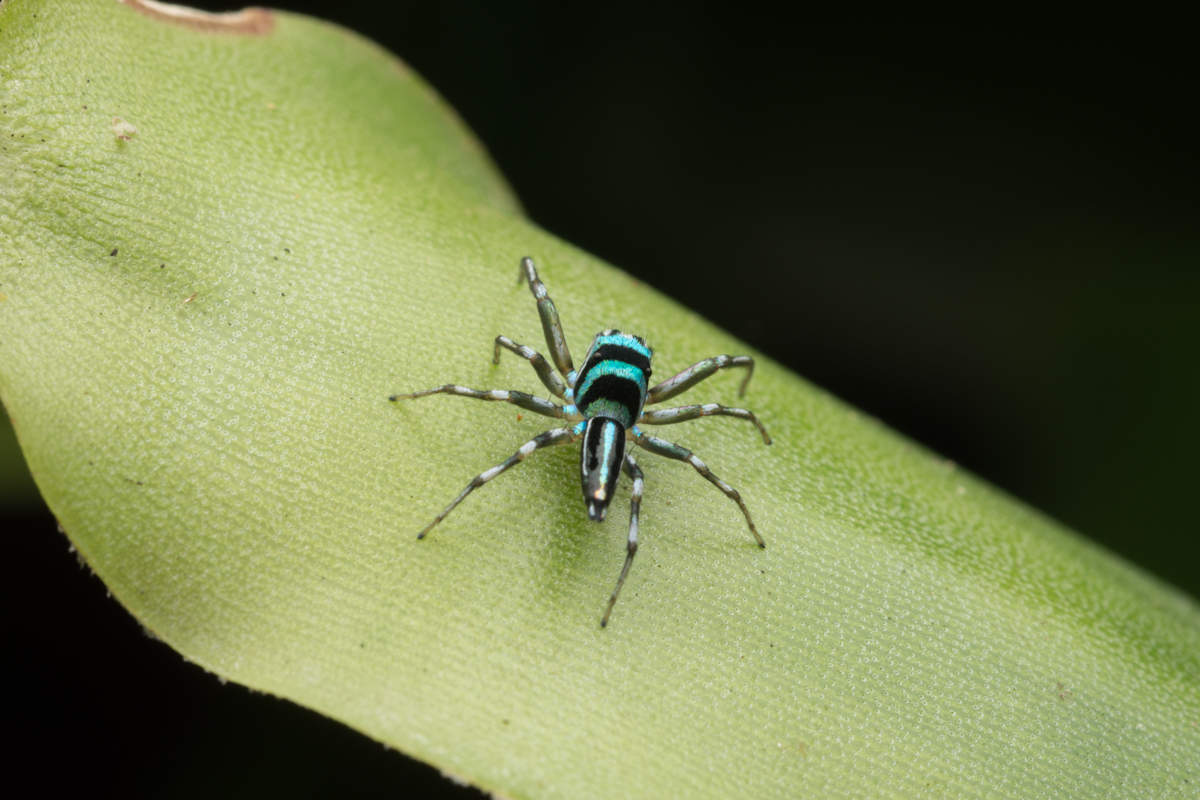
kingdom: Animalia
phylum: Arthropoda
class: Arachnida
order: Araneae
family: Salticidae
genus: Cosmophasis
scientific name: Cosmophasis micarioides
